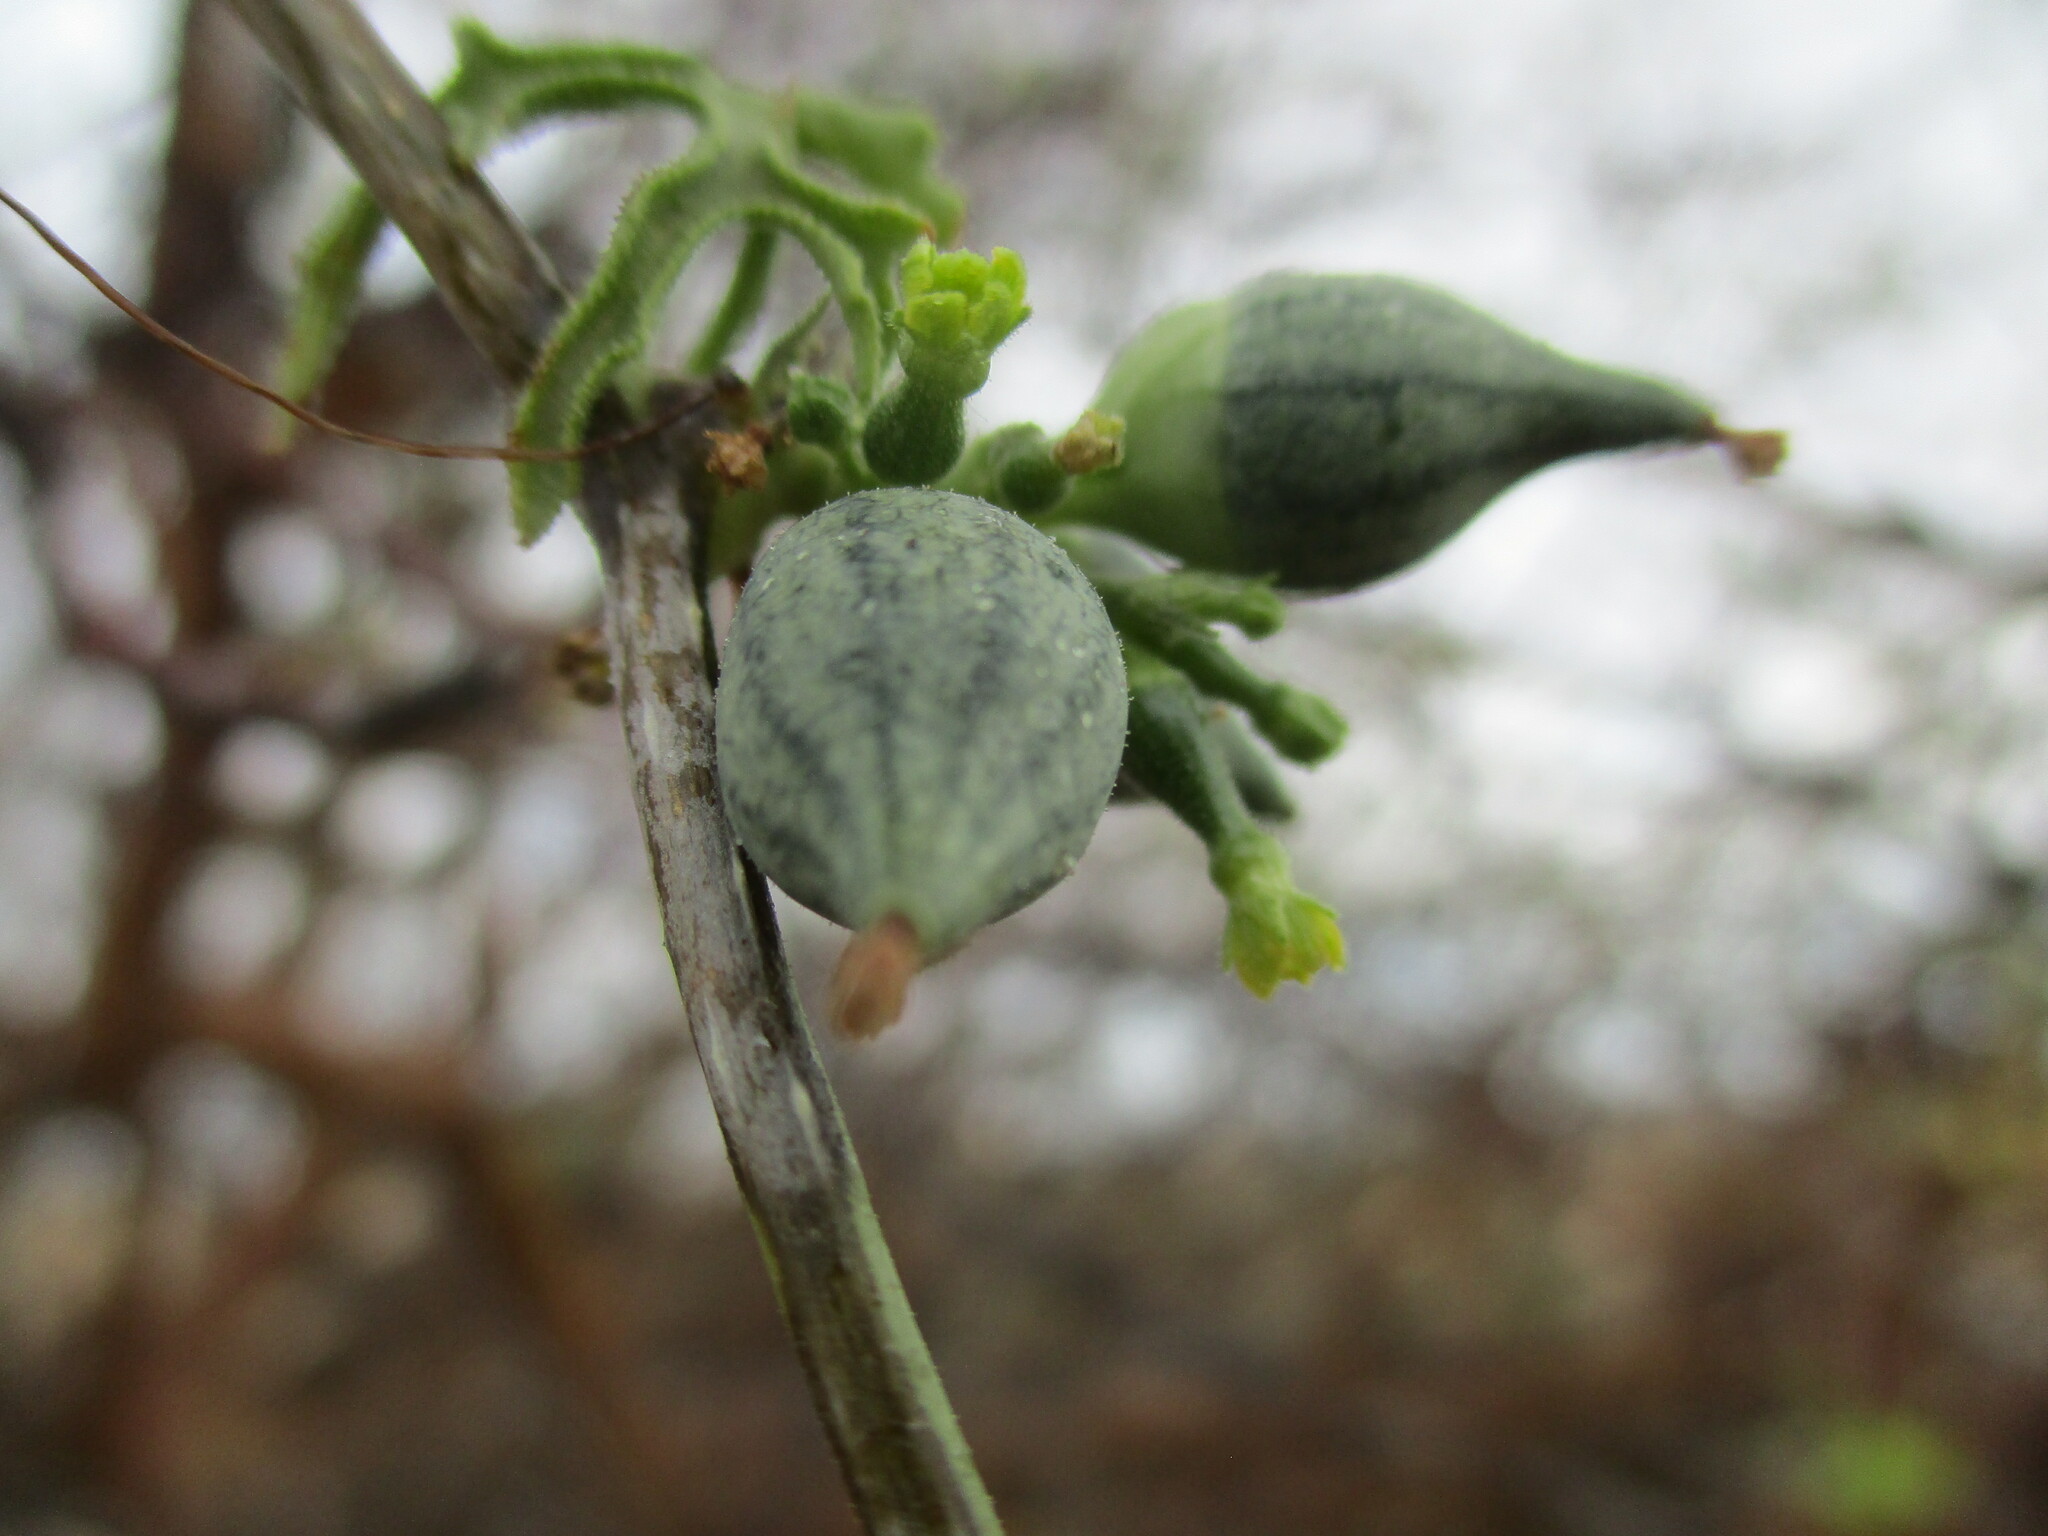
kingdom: Plantae
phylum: Tracheophyta
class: Magnoliopsida
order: Cucurbitales
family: Cucurbitaceae
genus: Corallocarpus
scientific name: Corallocarpus welwitschii
